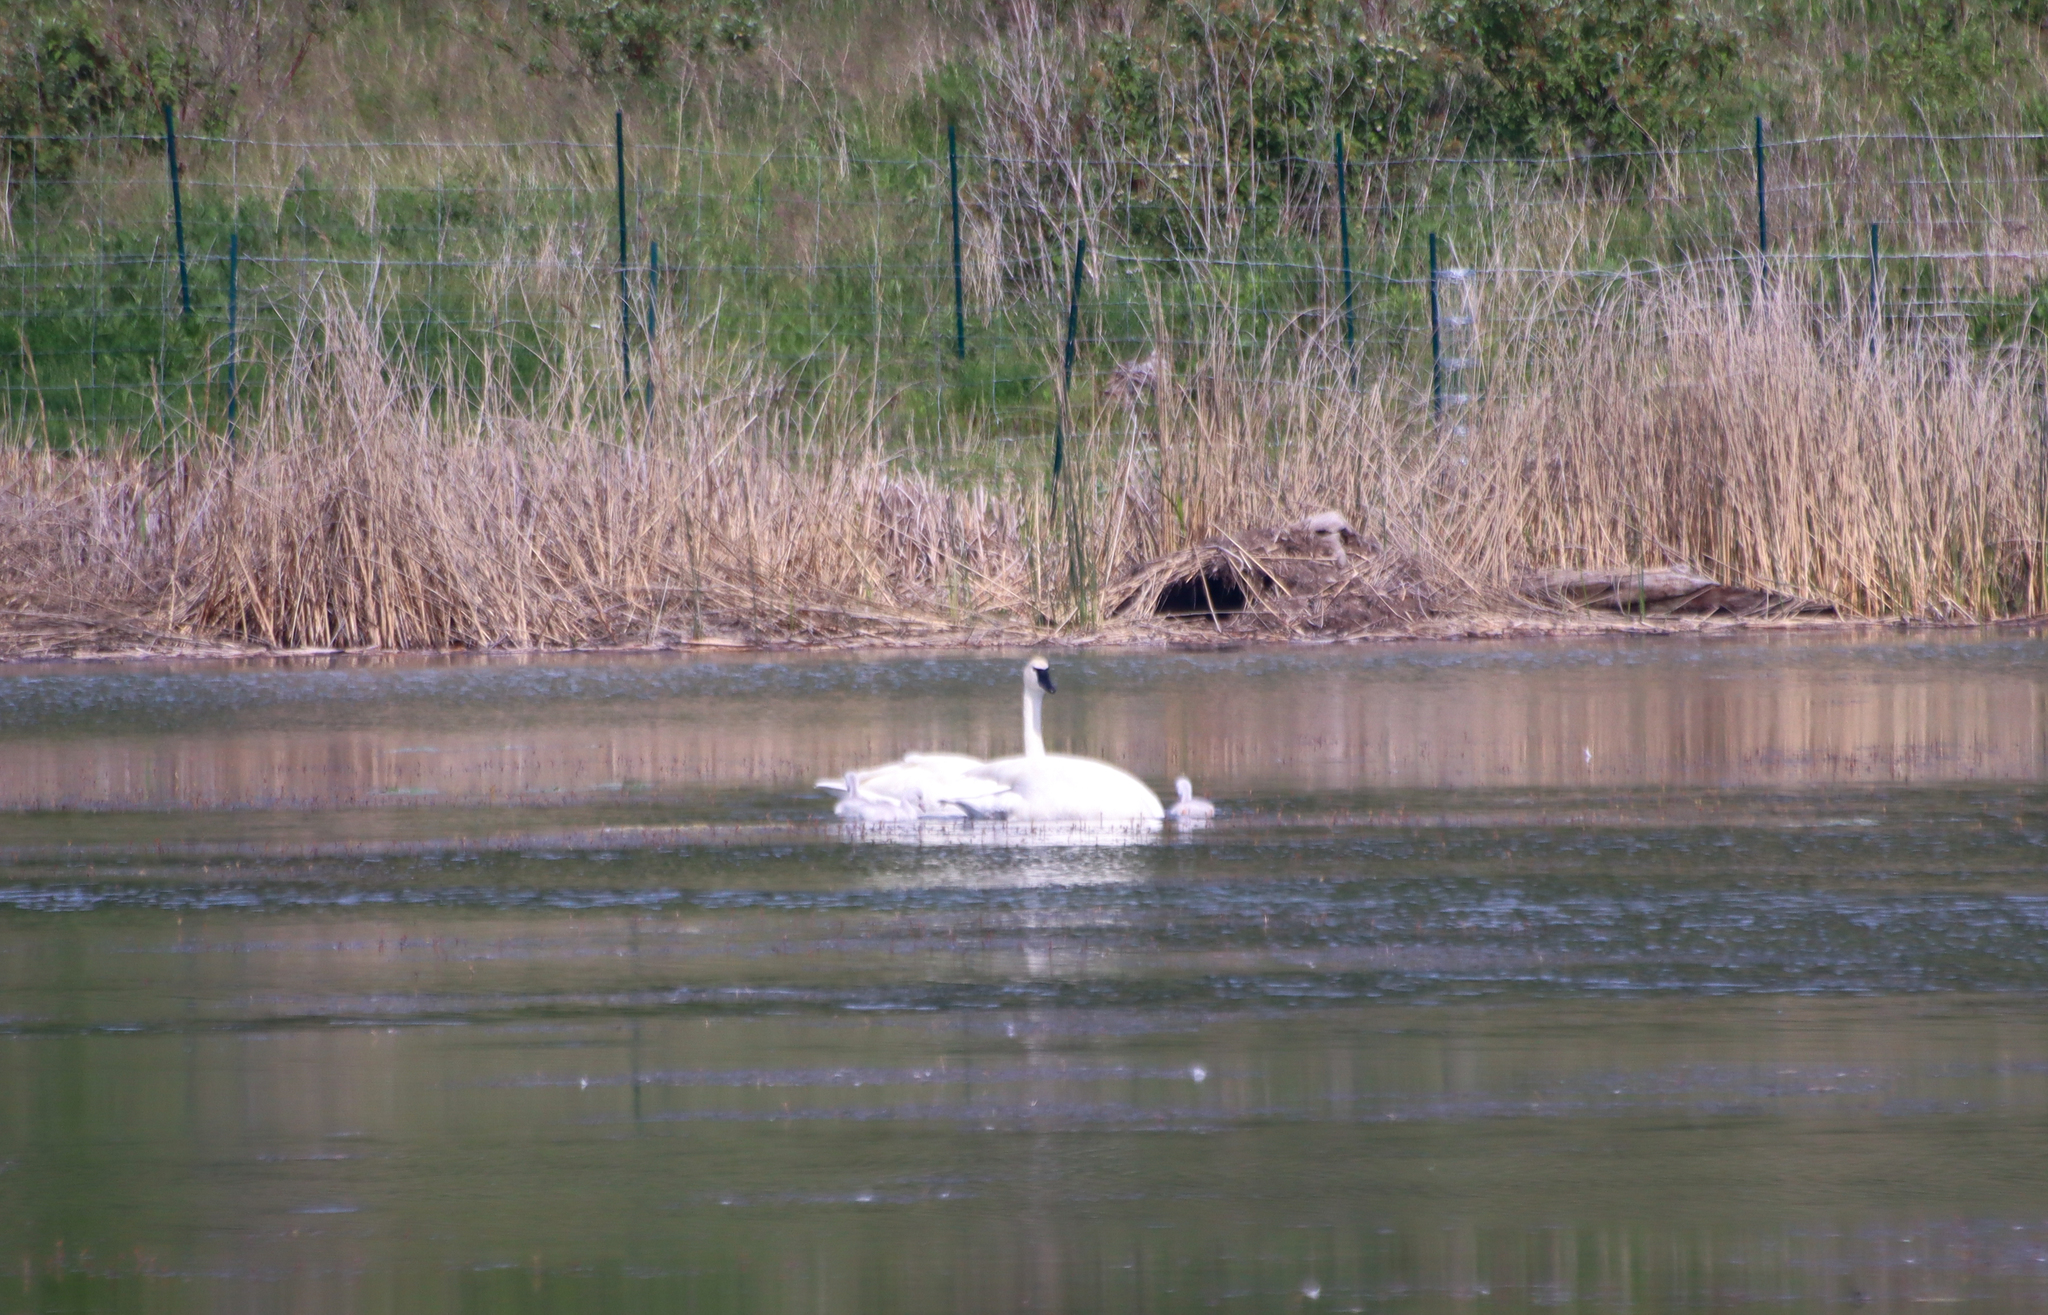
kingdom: Animalia
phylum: Chordata
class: Aves
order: Anseriformes
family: Anatidae
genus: Cygnus
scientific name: Cygnus buccinator
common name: Trumpeter swan
